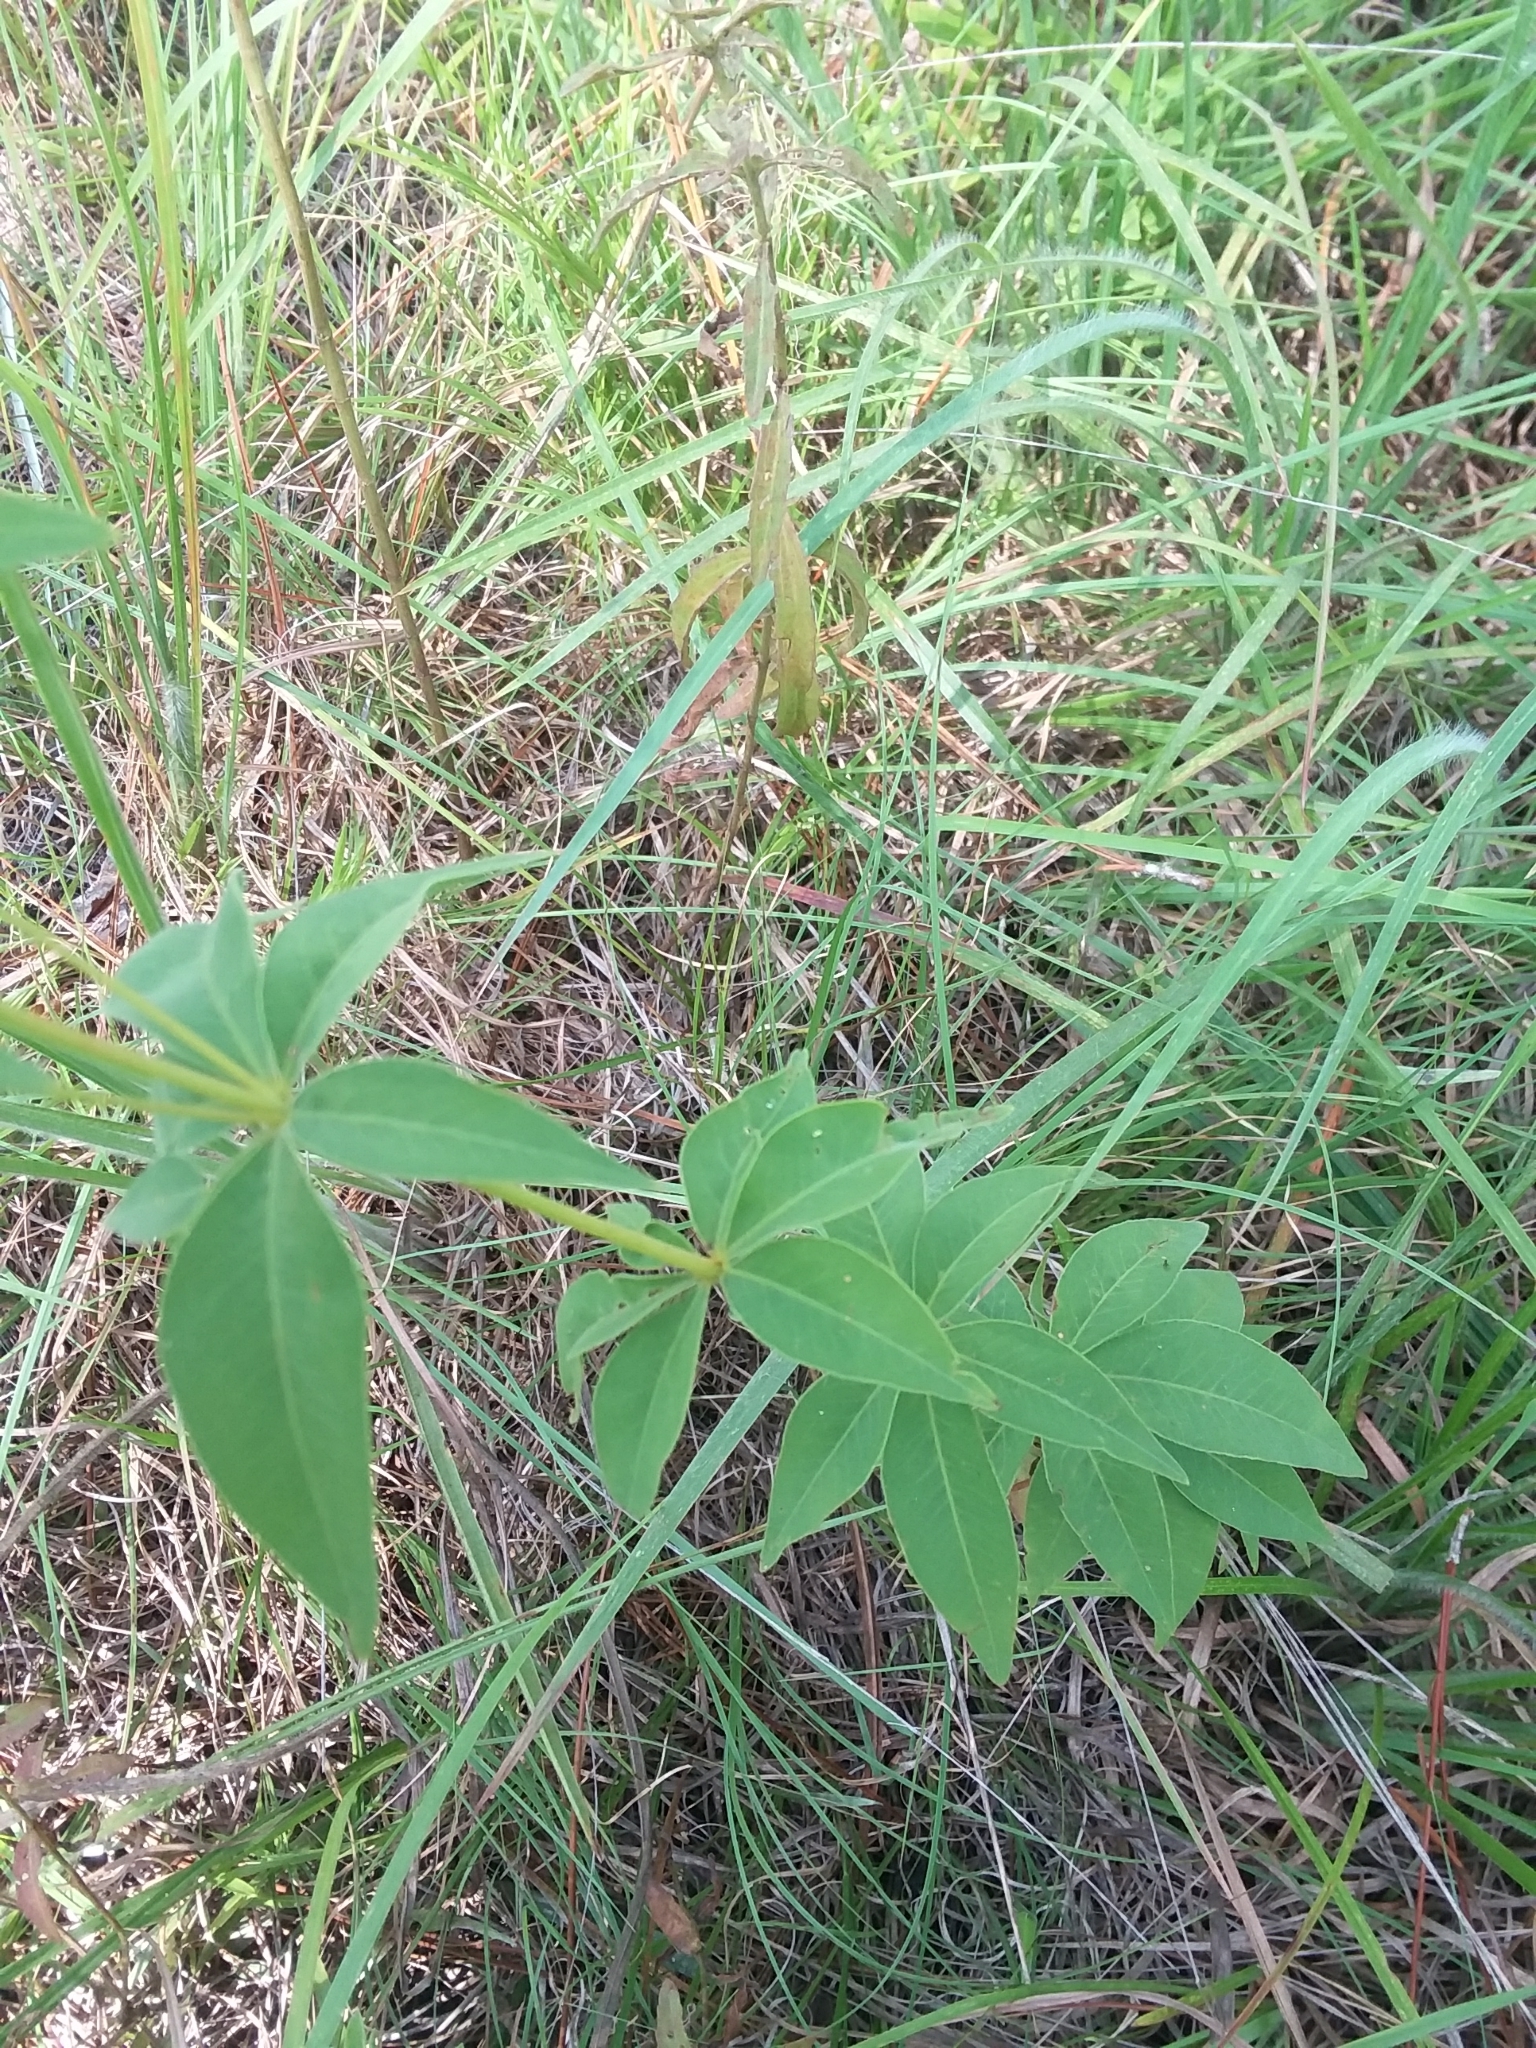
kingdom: Plantae
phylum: Tracheophyta
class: Magnoliopsida
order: Asterales
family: Asteraceae
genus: Coreopsis
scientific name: Coreopsis major
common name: Forest tickseed
